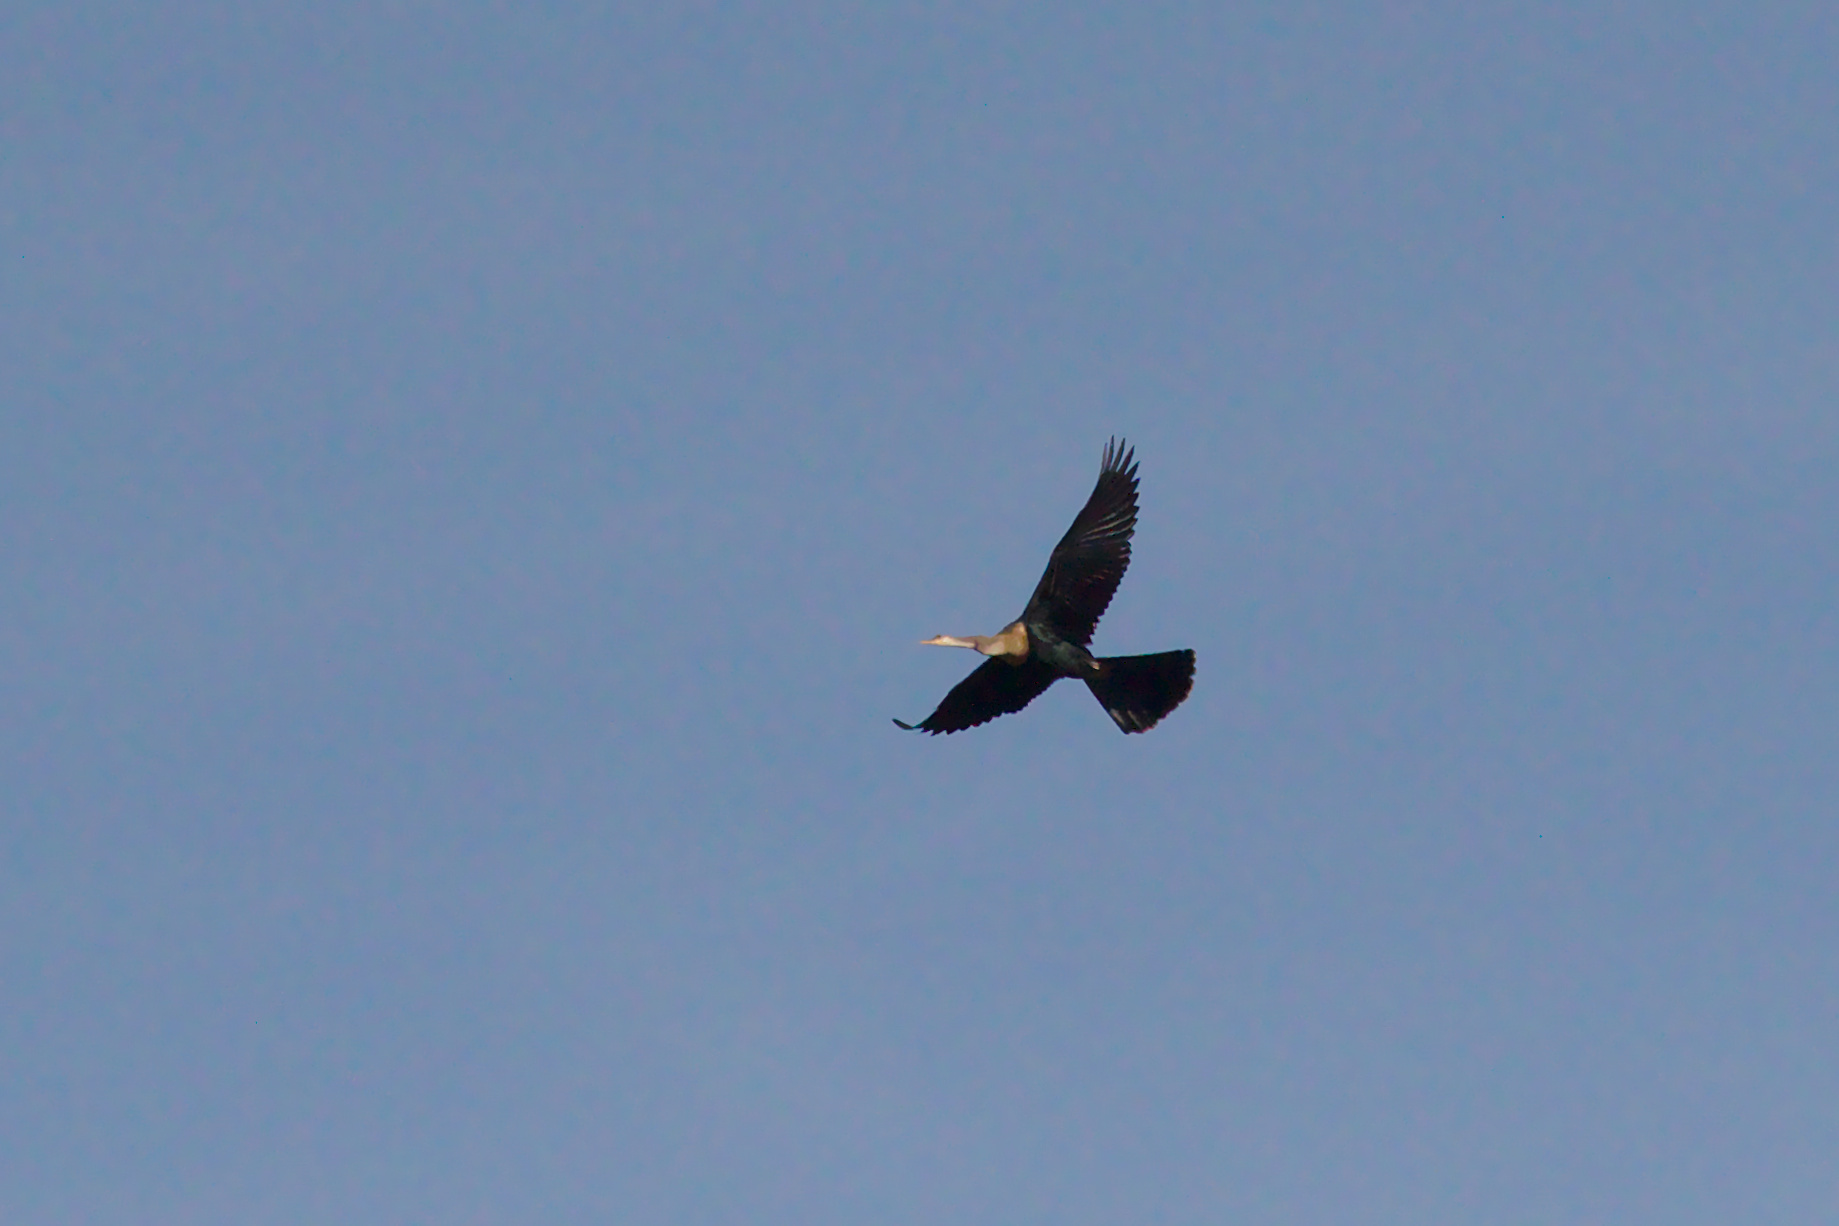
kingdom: Animalia
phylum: Chordata
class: Aves
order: Suliformes
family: Anhingidae
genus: Anhinga
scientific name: Anhinga anhinga
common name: Anhinga
